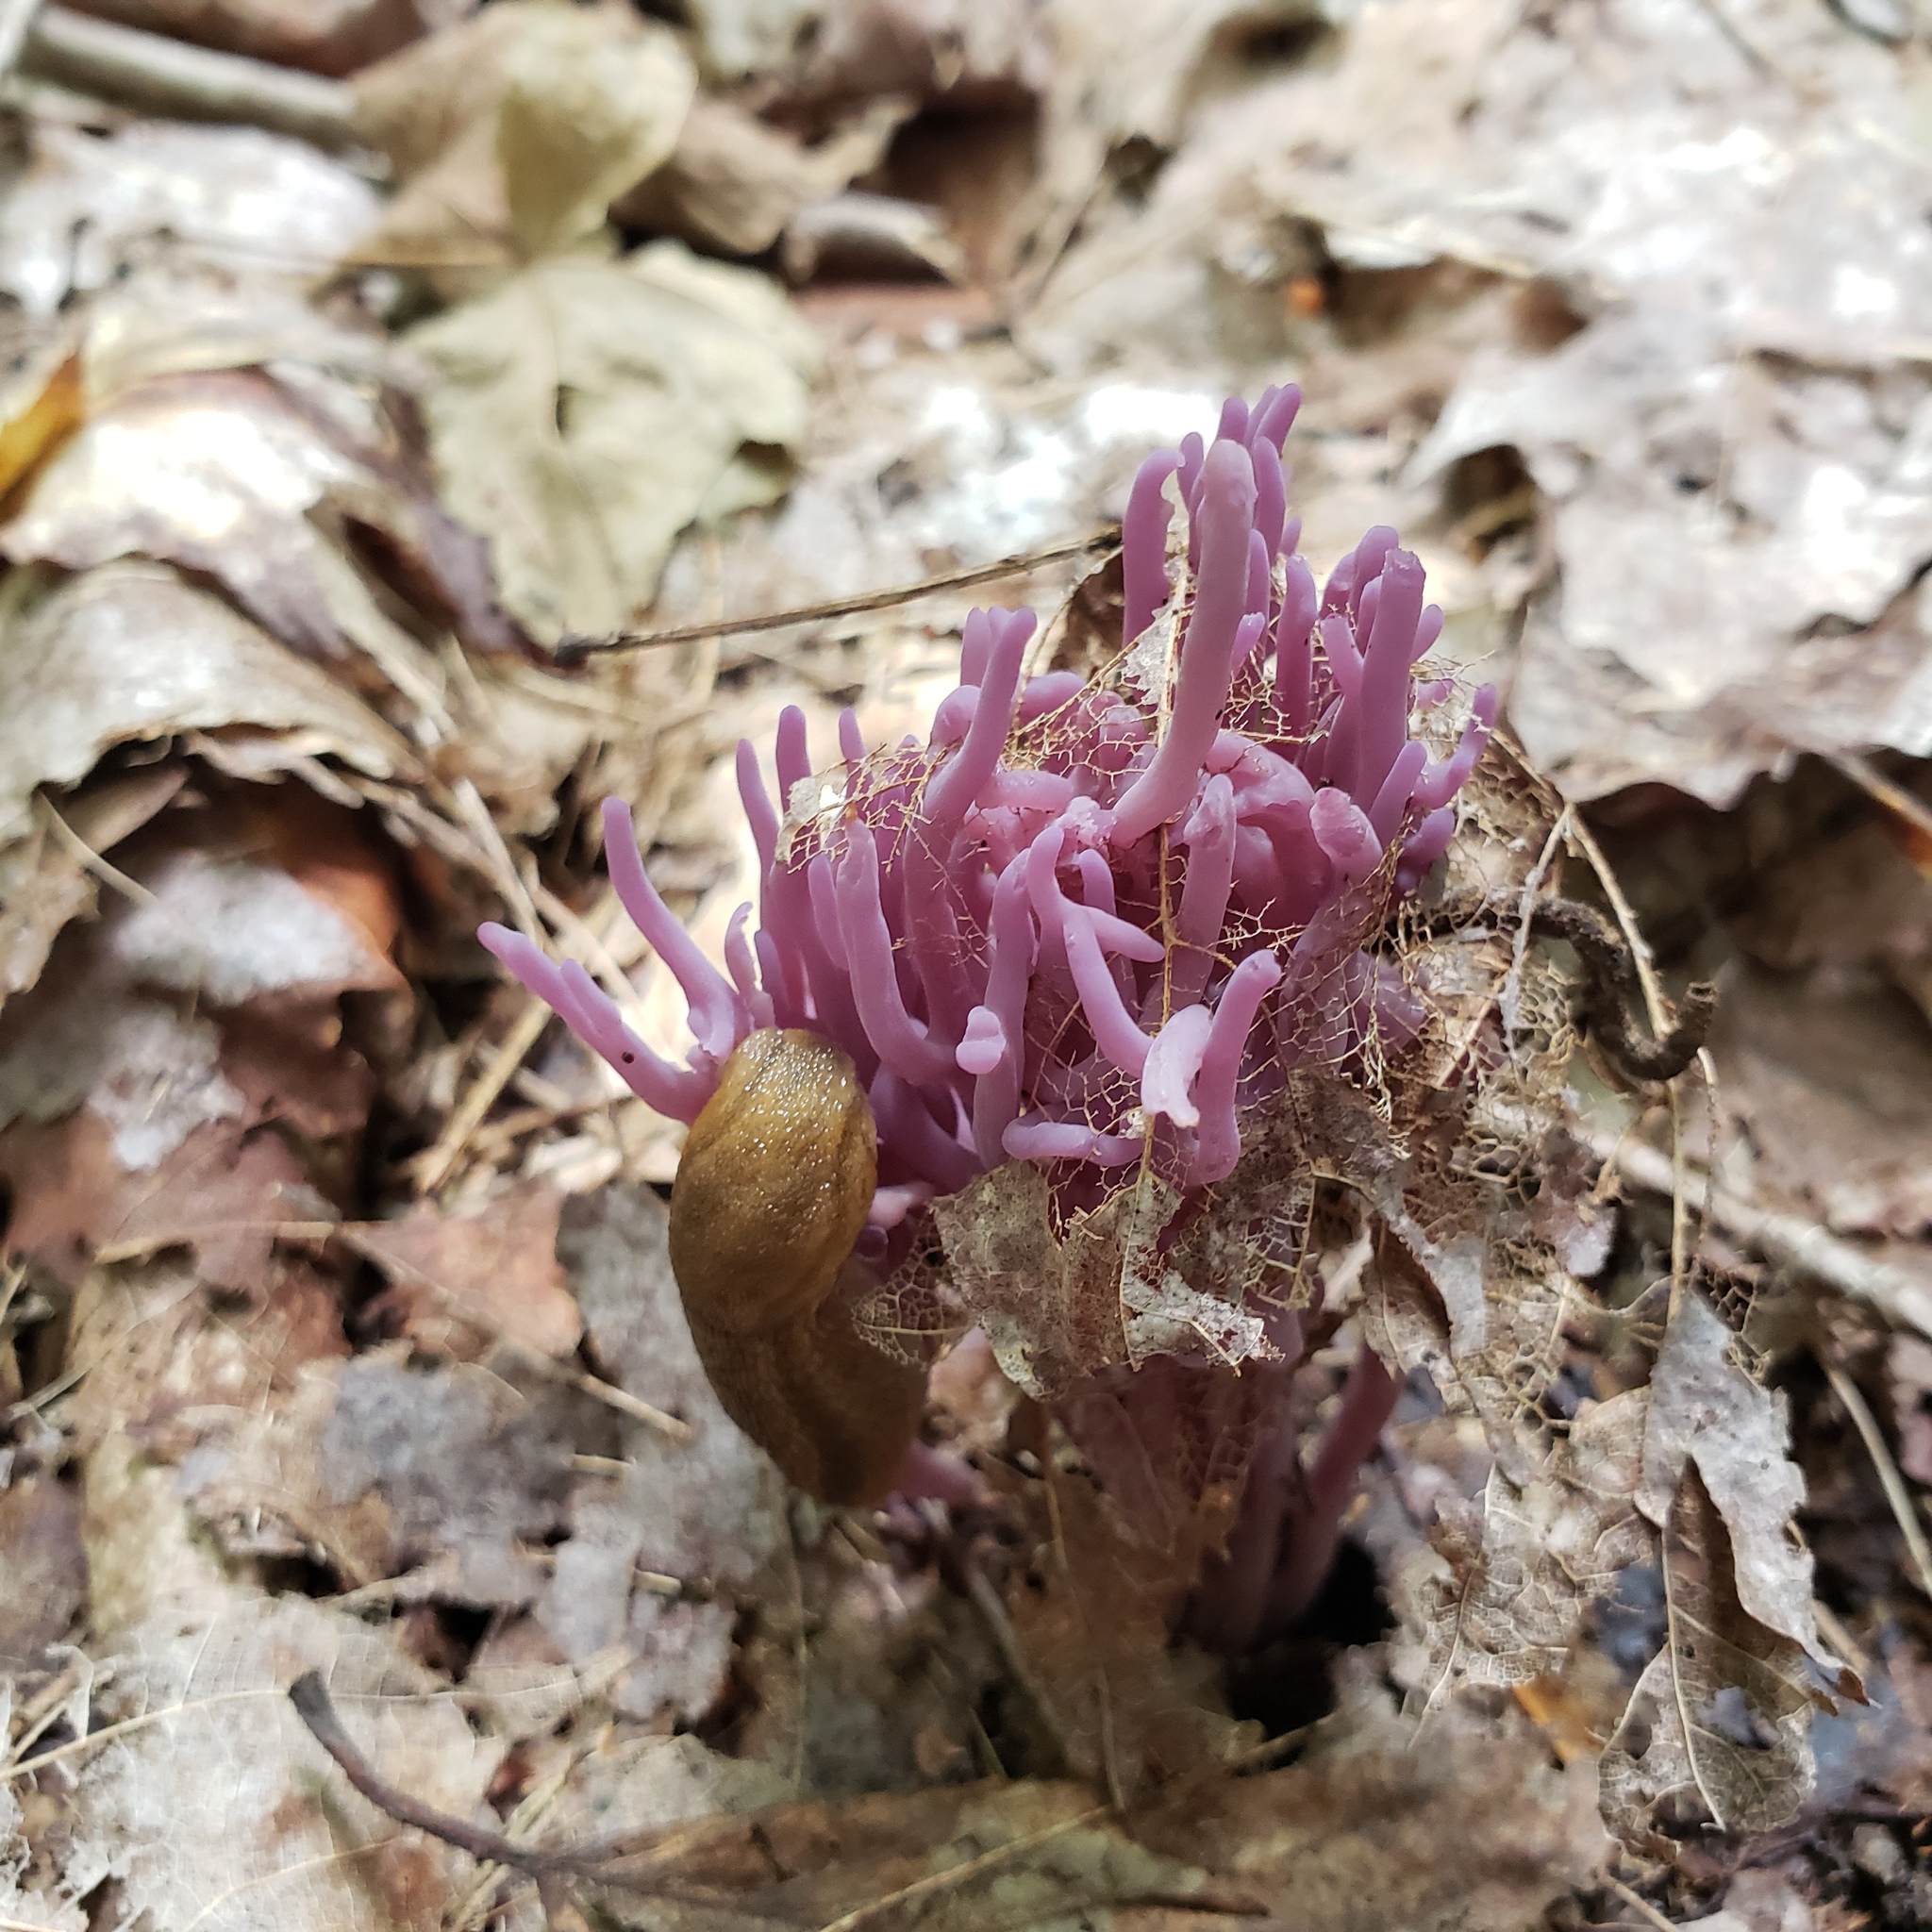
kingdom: Fungi
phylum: Basidiomycota
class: Agaricomycetes
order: Agaricales
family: Clavariaceae
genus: Clavaria
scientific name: Clavaria zollingeri
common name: Violet coral
